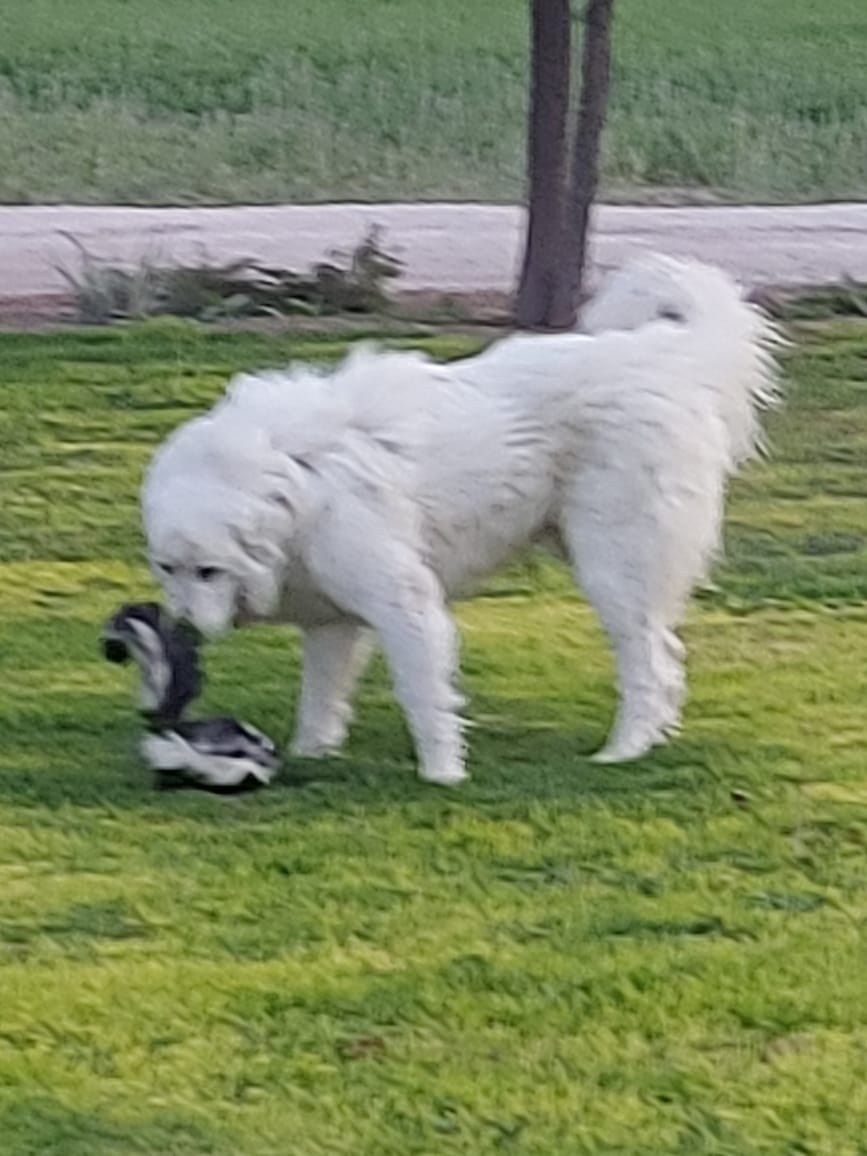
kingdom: Animalia
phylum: Chordata
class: Mammalia
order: Carnivora
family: Mephitidae
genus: Mephitis
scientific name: Mephitis macroura
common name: Hooded skunk
